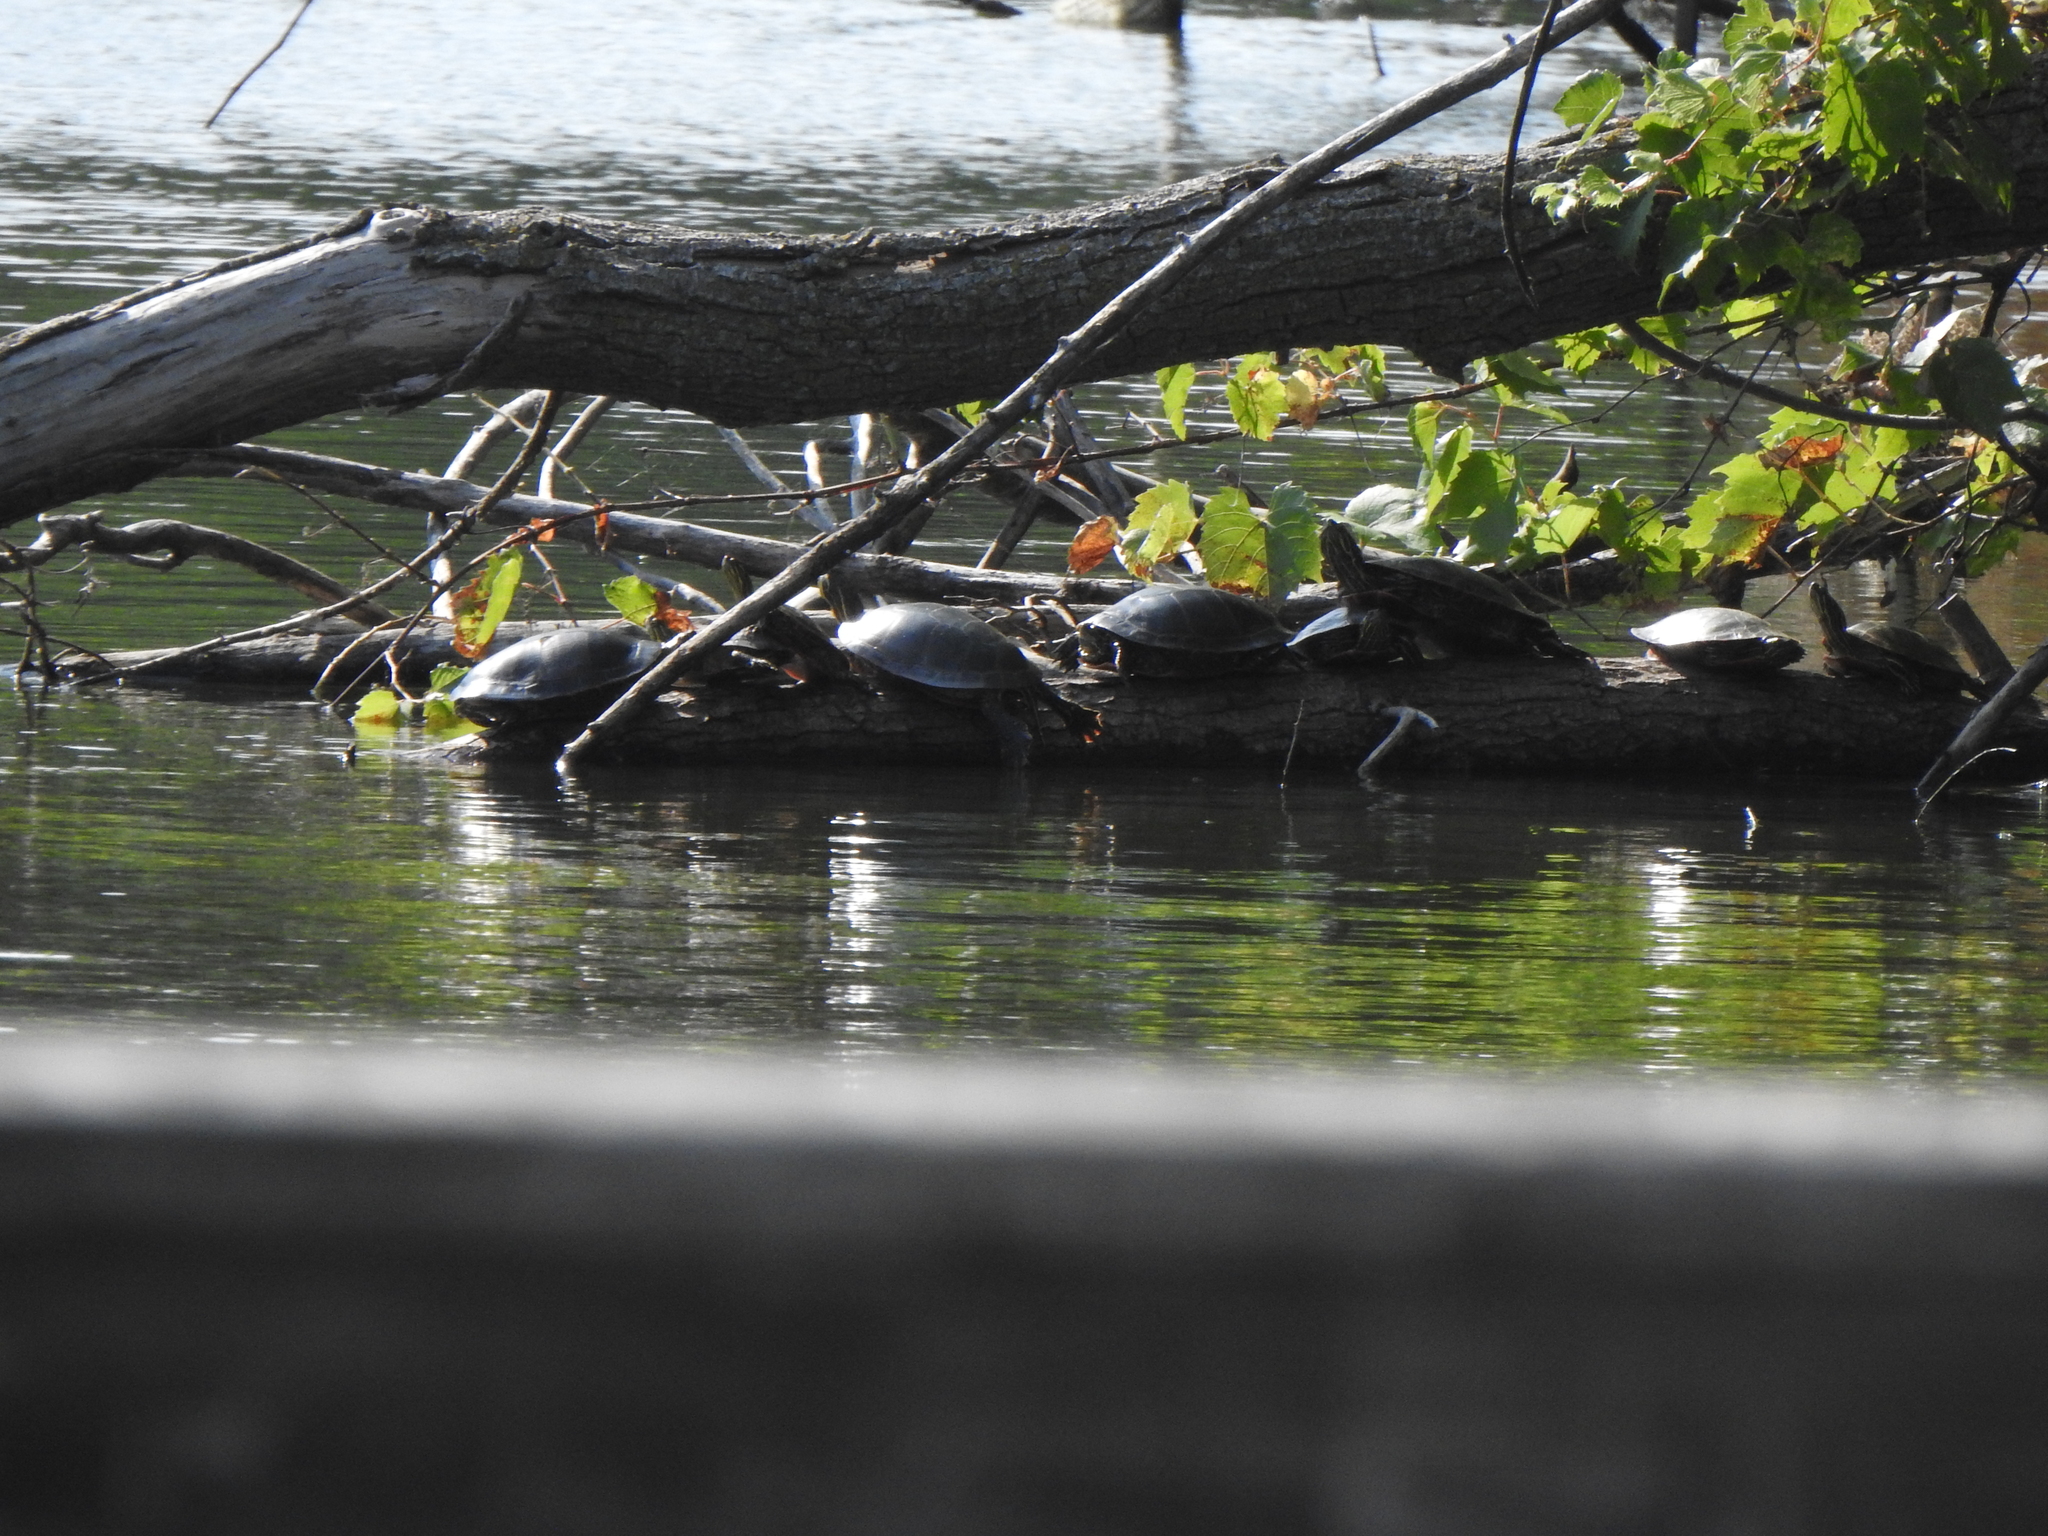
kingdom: Animalia
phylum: Chordata
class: Testudines
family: Emydidae
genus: Chrysemys
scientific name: Chrysemys picta
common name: Painted turtle
